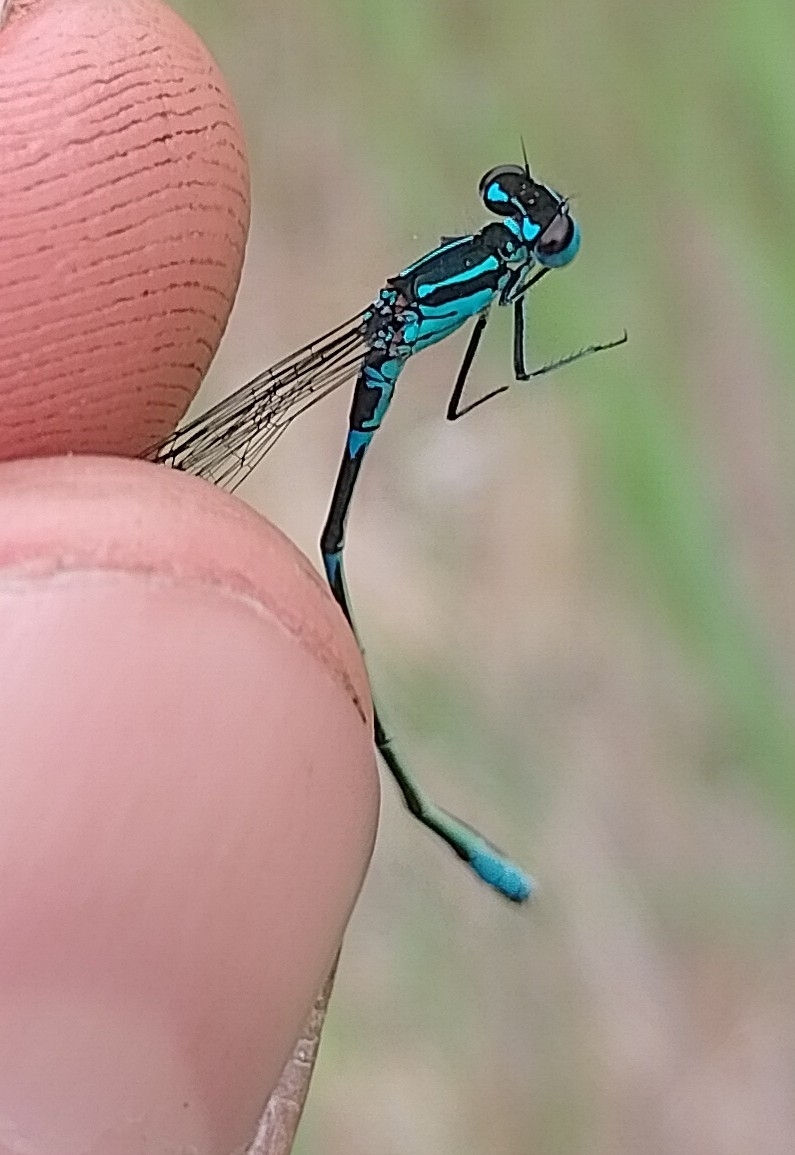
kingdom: Animalia
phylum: Arthropoda
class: Insecta
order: Odonata
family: Coenagrionidae
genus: Coenagrion
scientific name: Coenagrion pulchellum
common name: Variable bluet
